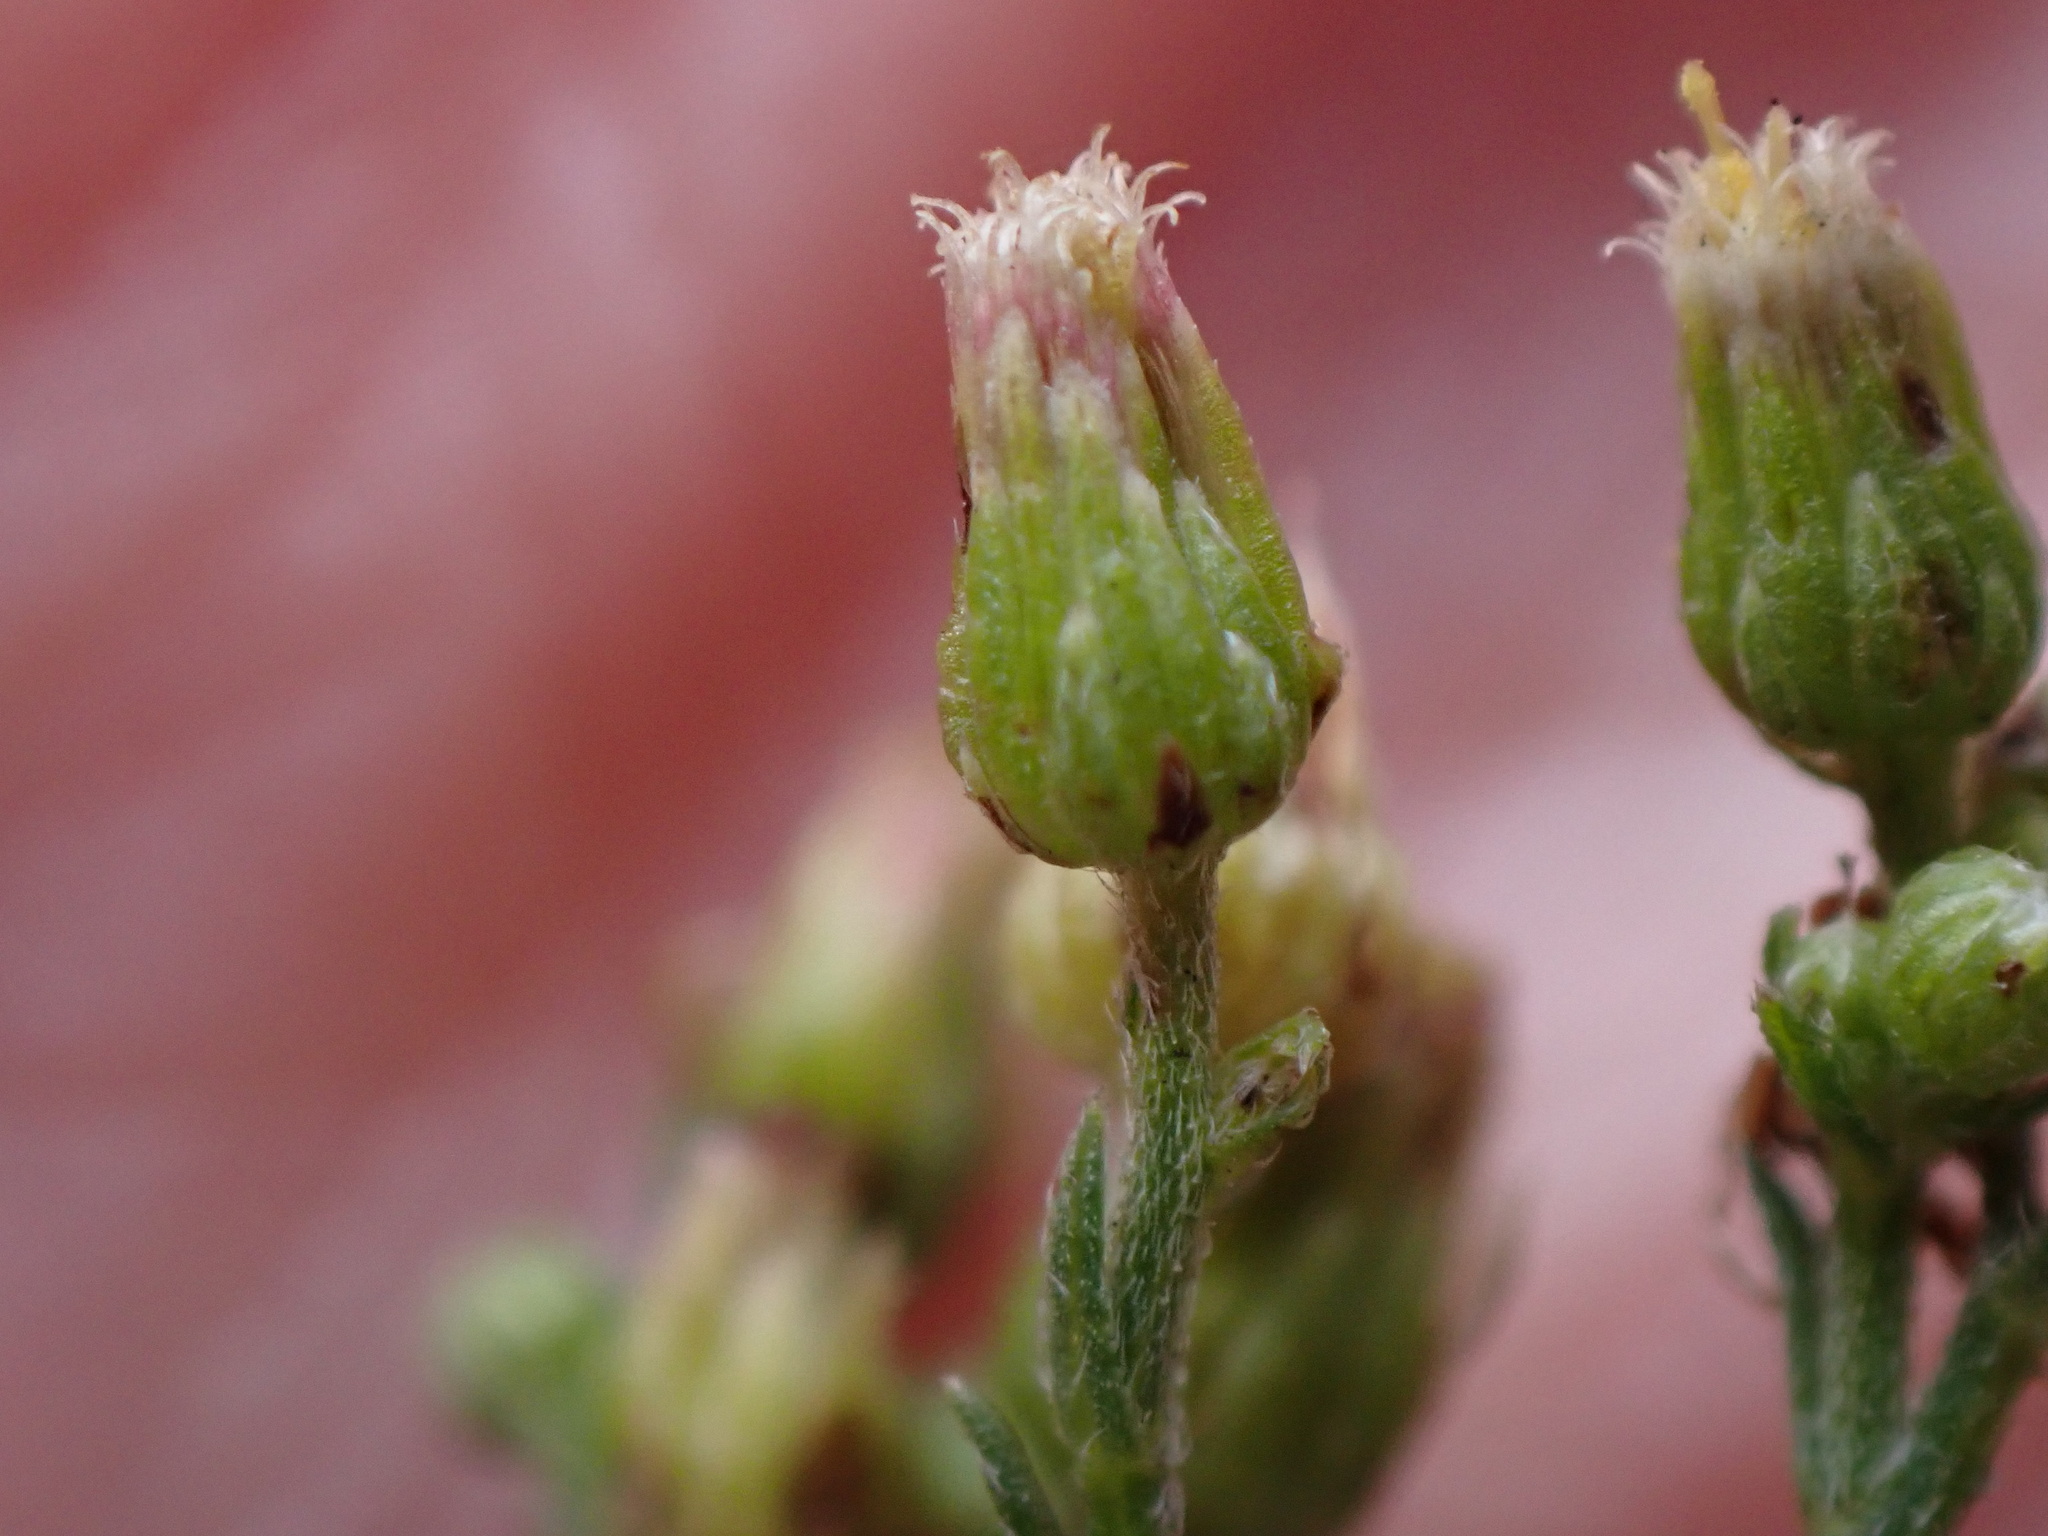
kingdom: Plantae
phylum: Tracheophyta
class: Magnoliopsida
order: Asterales
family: Asteraceae
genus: Erigeron
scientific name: Erigeron floribundus
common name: Bilbao fleabane
